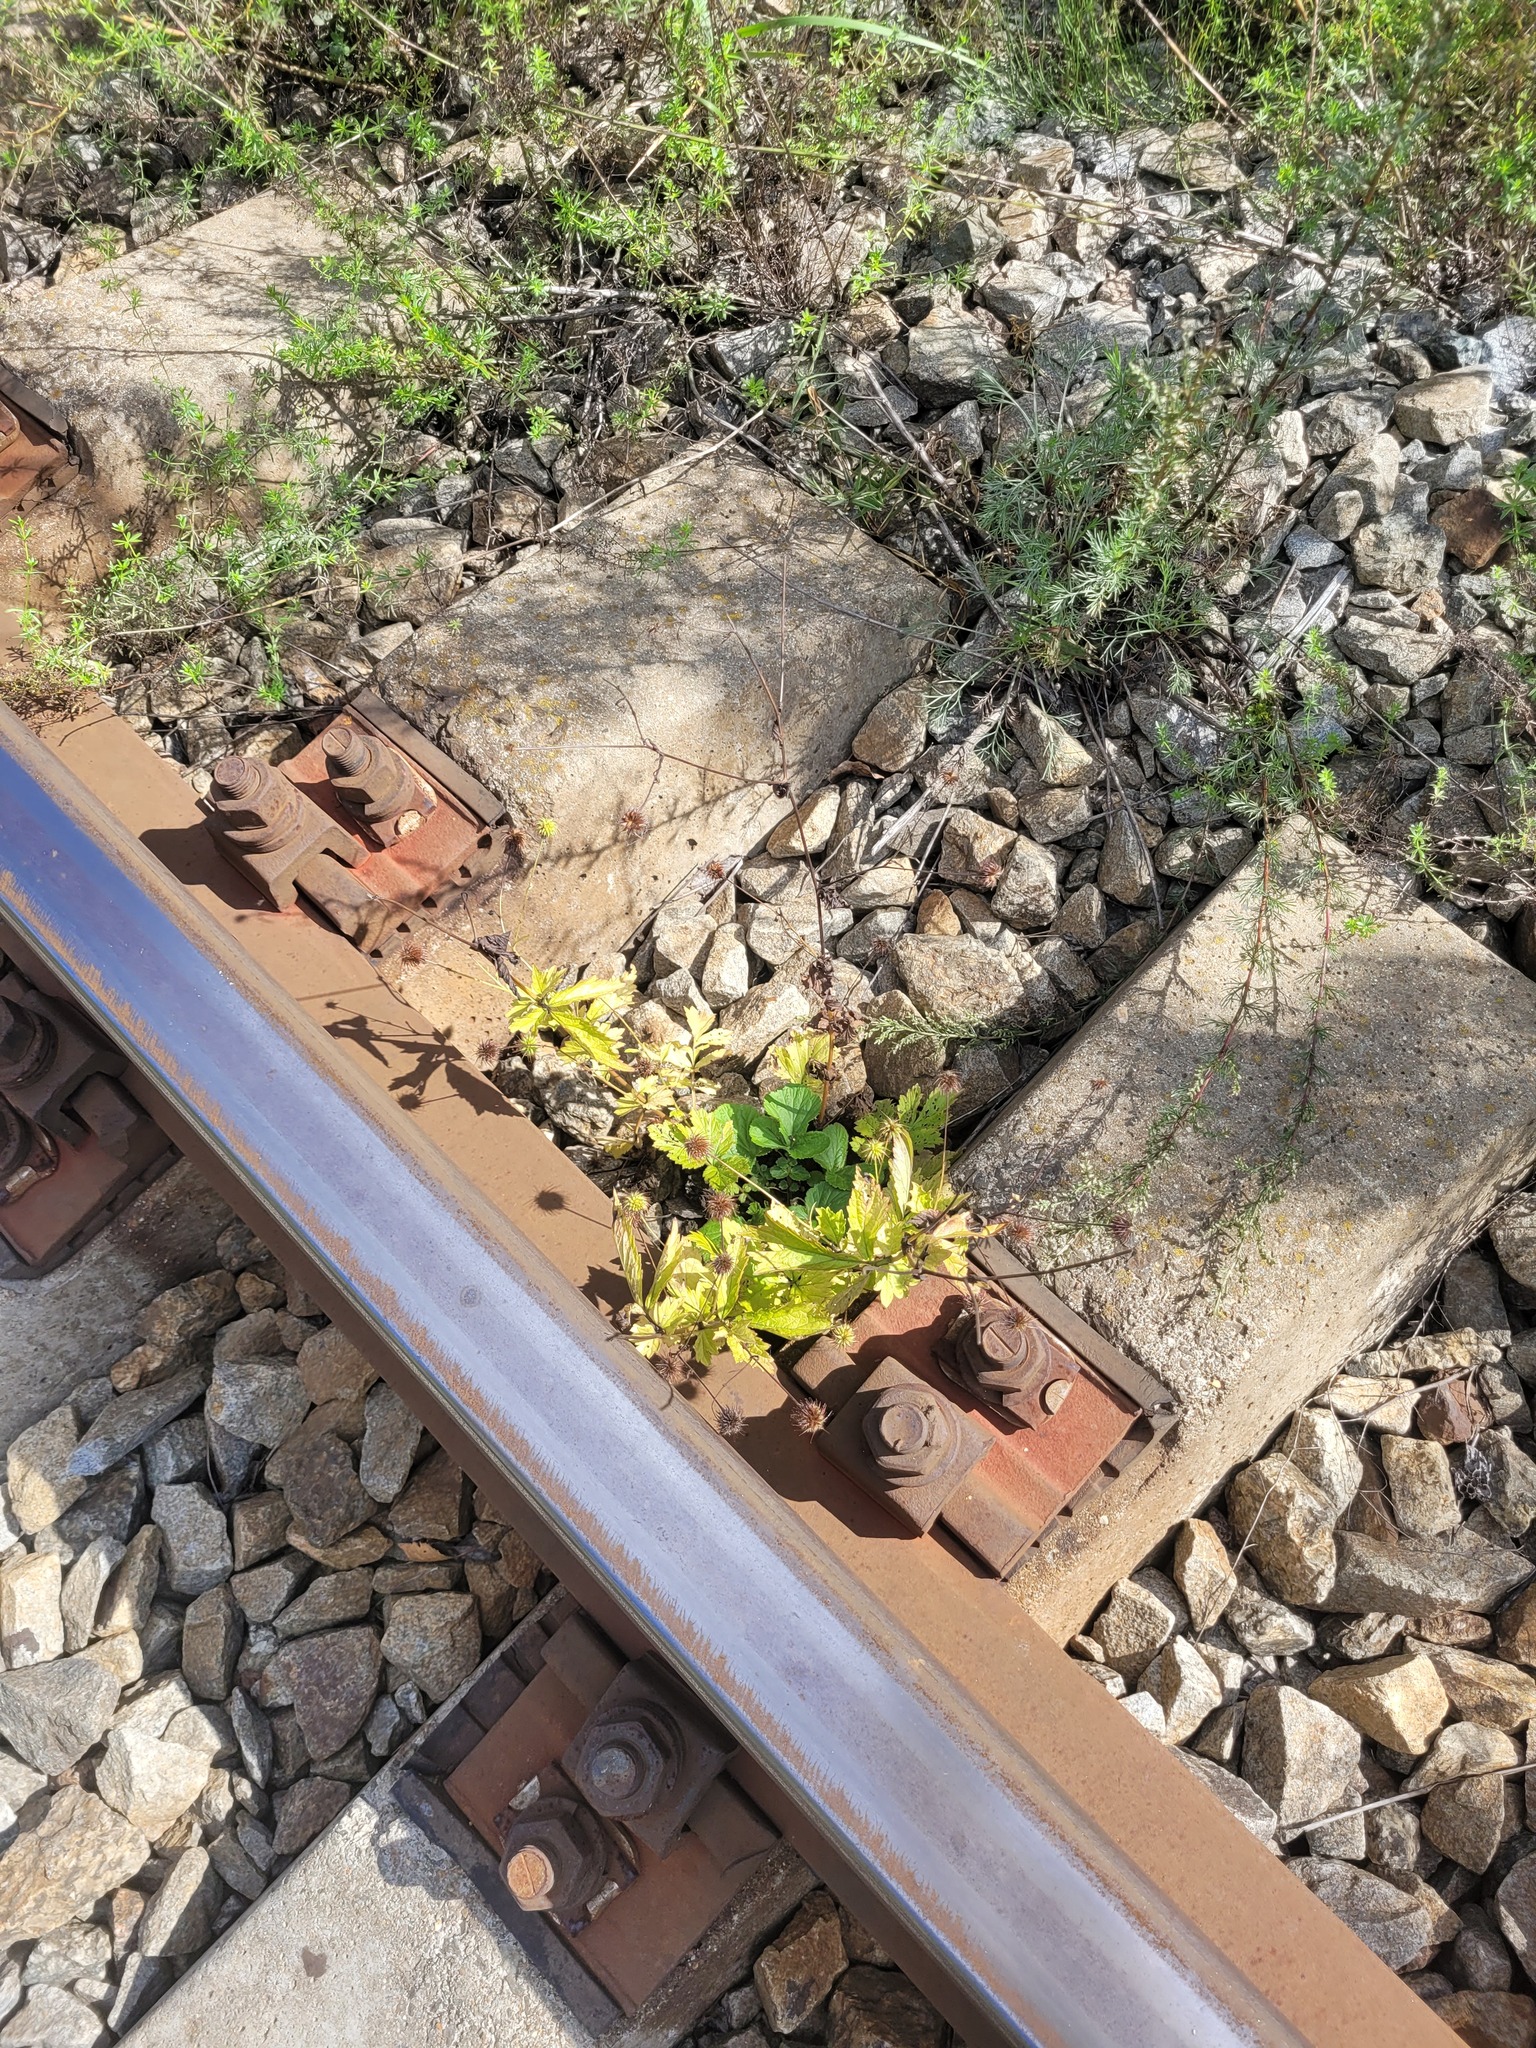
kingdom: Plantae
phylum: Tracheophyta
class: Magnoliopsida
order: Rosales
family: Rosaceae
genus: Geum
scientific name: Geum urbanum
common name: Wood avens
